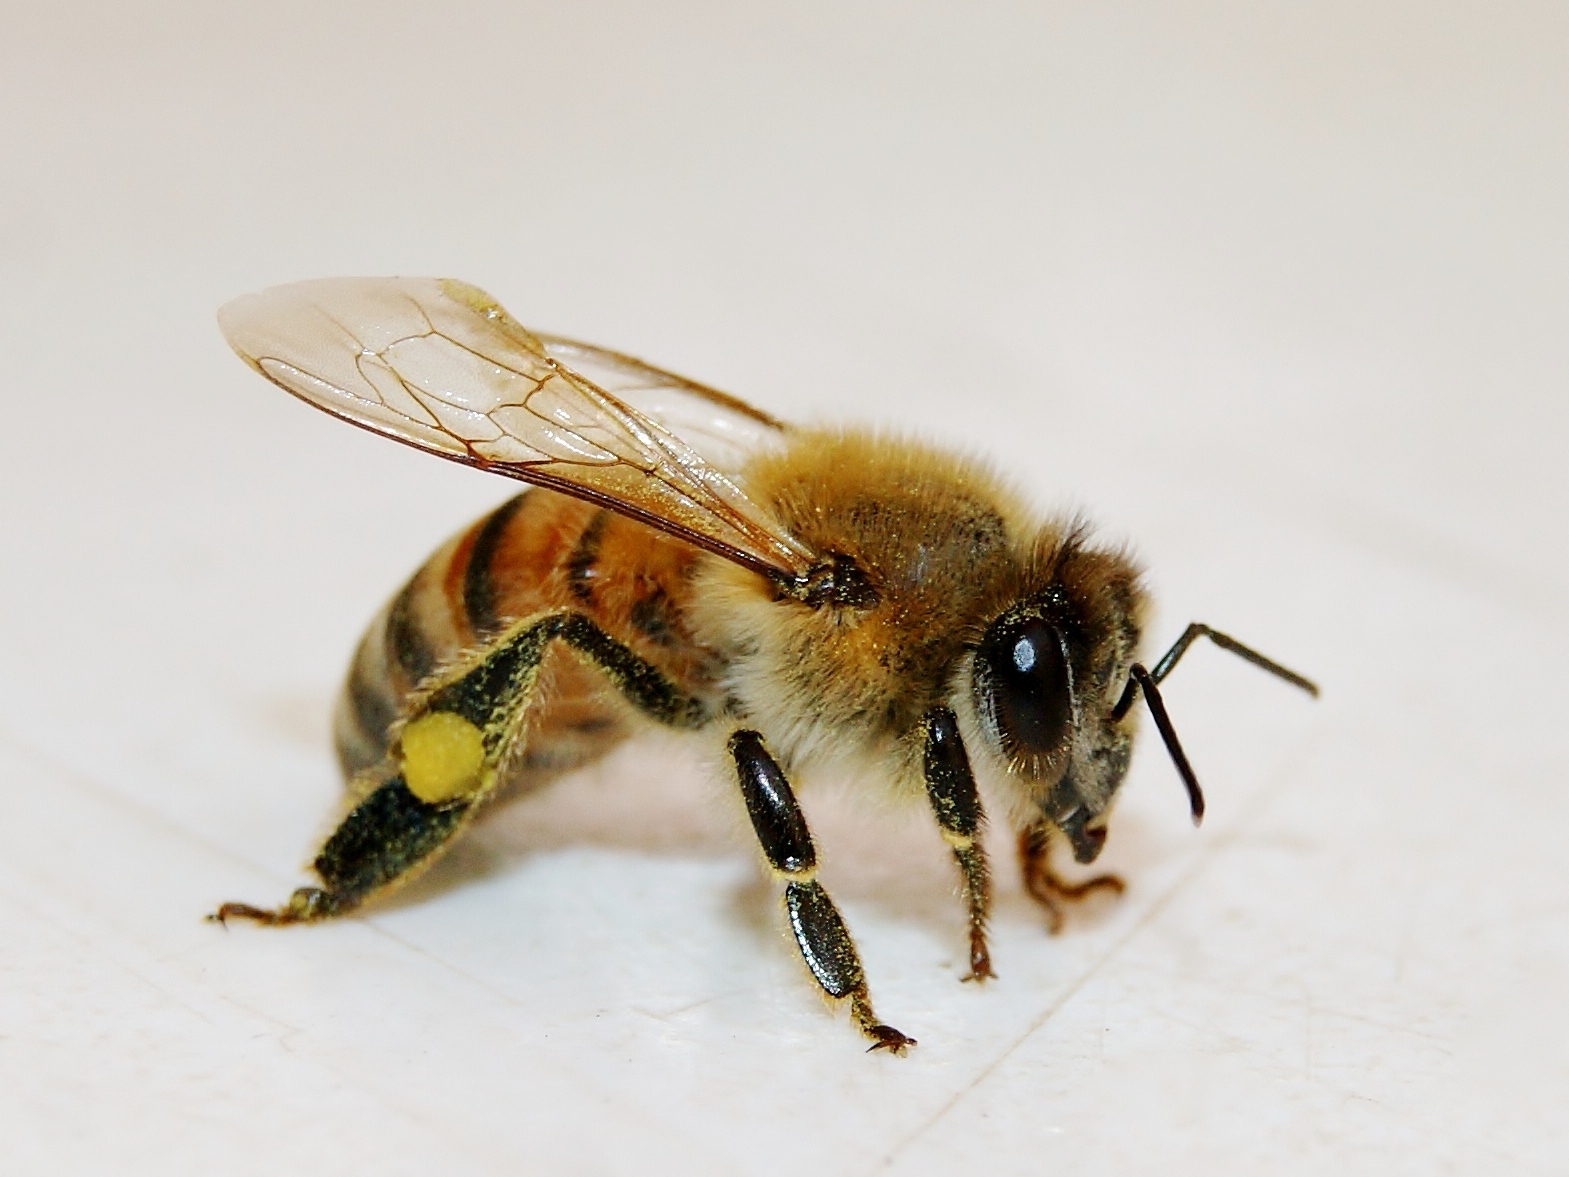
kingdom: Animalia
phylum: Arthropoda
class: Insecta
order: Hymenoptera
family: Apidae
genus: Apis
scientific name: Apis mellifera
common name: Honey bee
